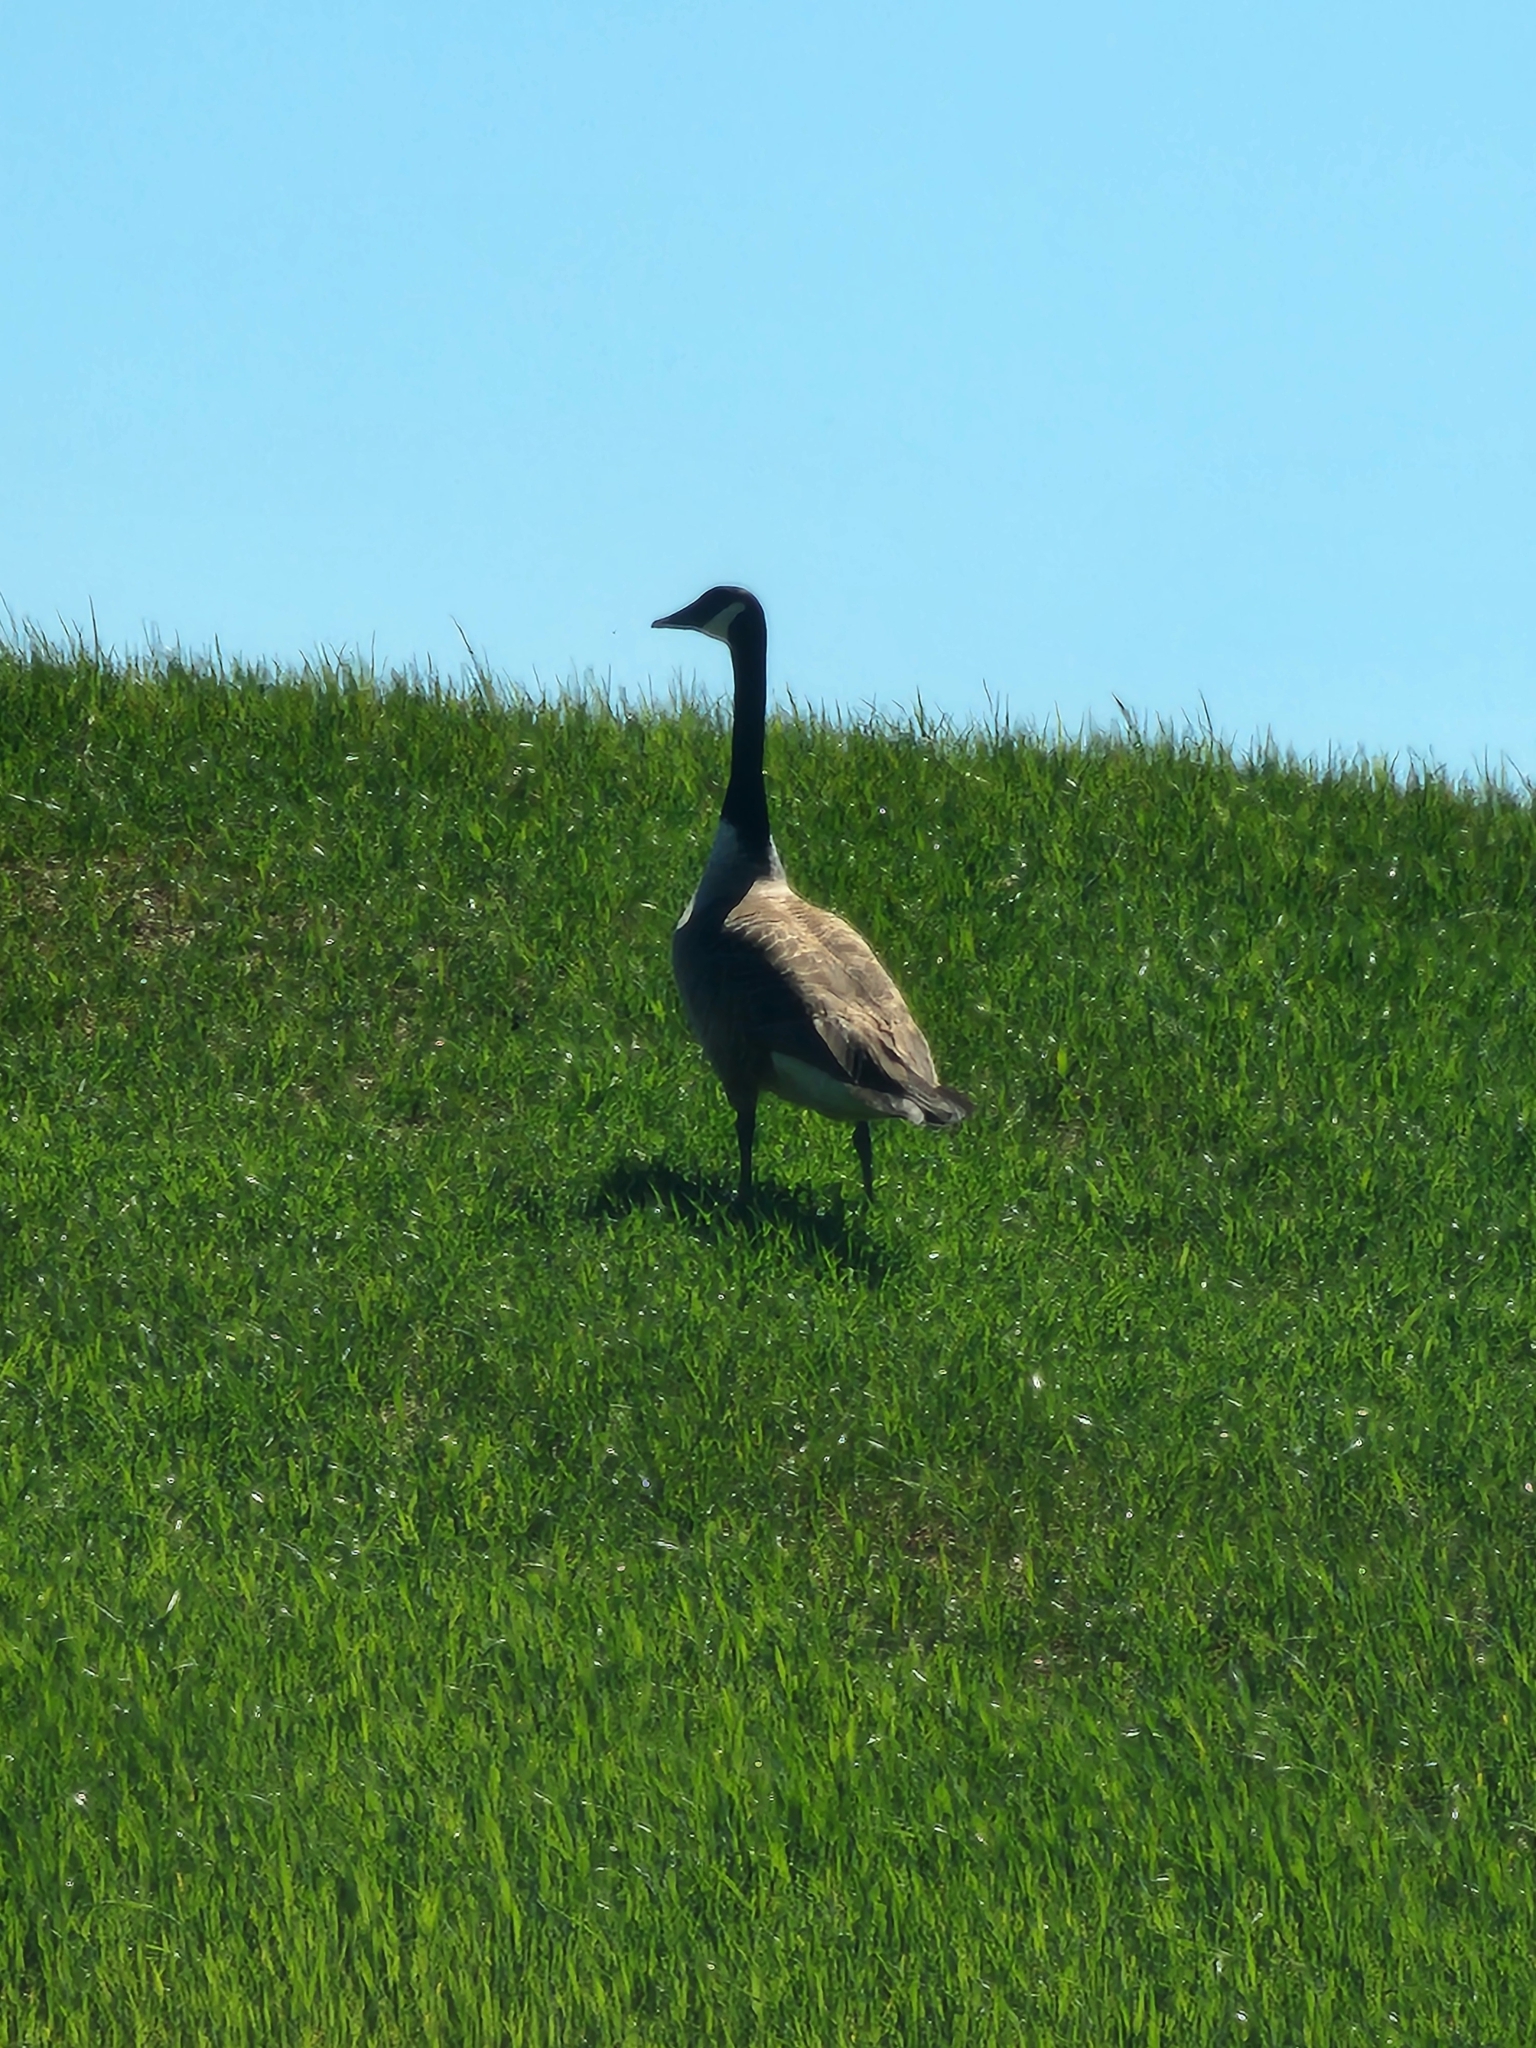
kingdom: Animalia
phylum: Chordata
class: Aves
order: Anseriformes
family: Anatidae
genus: Branta
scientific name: Branta canadensis
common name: Canada goose
